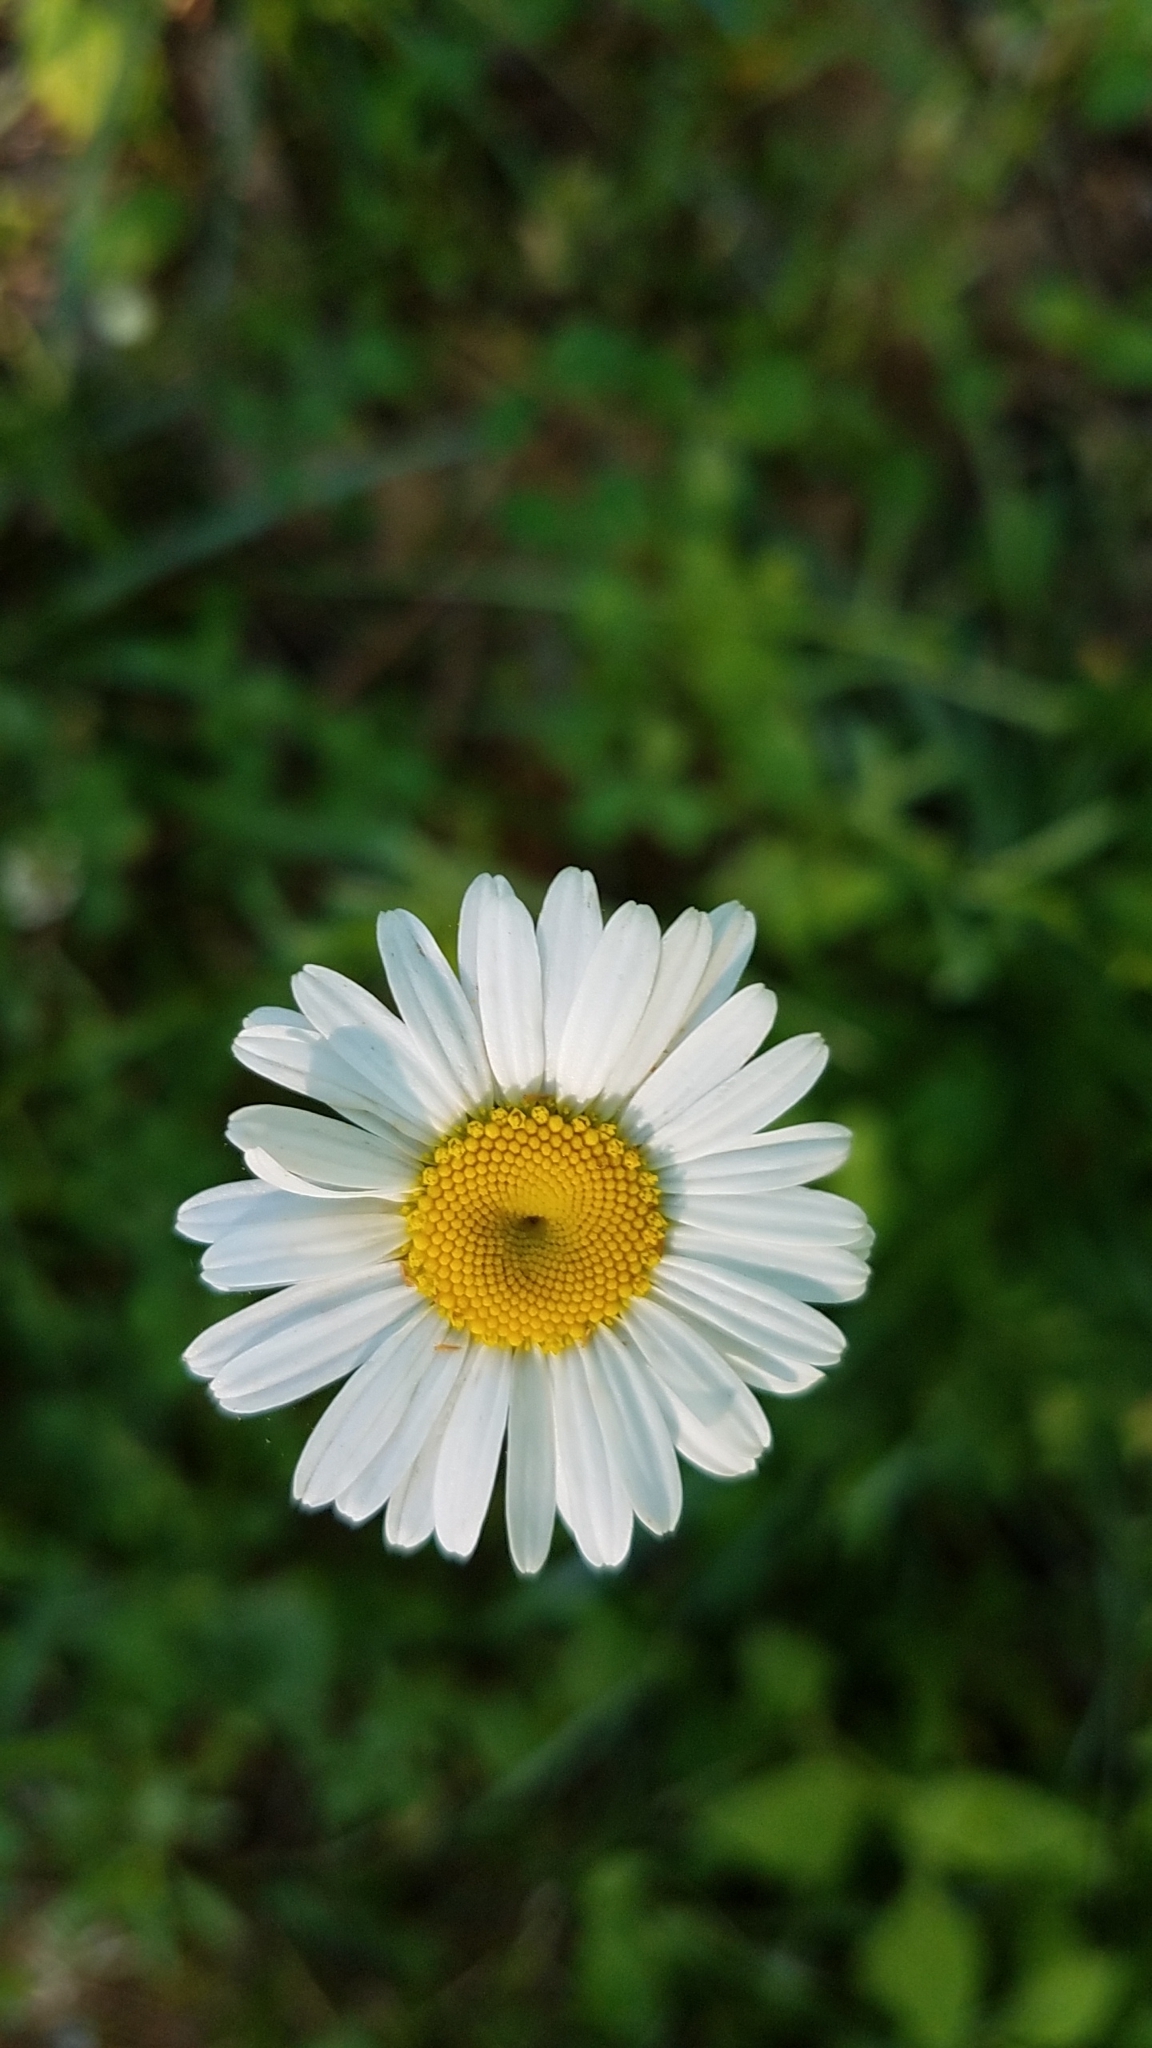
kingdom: Plantae
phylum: Tracheophyta
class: Magnoliopsida
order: Asterales
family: Asteraceae
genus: Leucanthemum
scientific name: Leucanthemum vulgare
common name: Oxeye daisy
